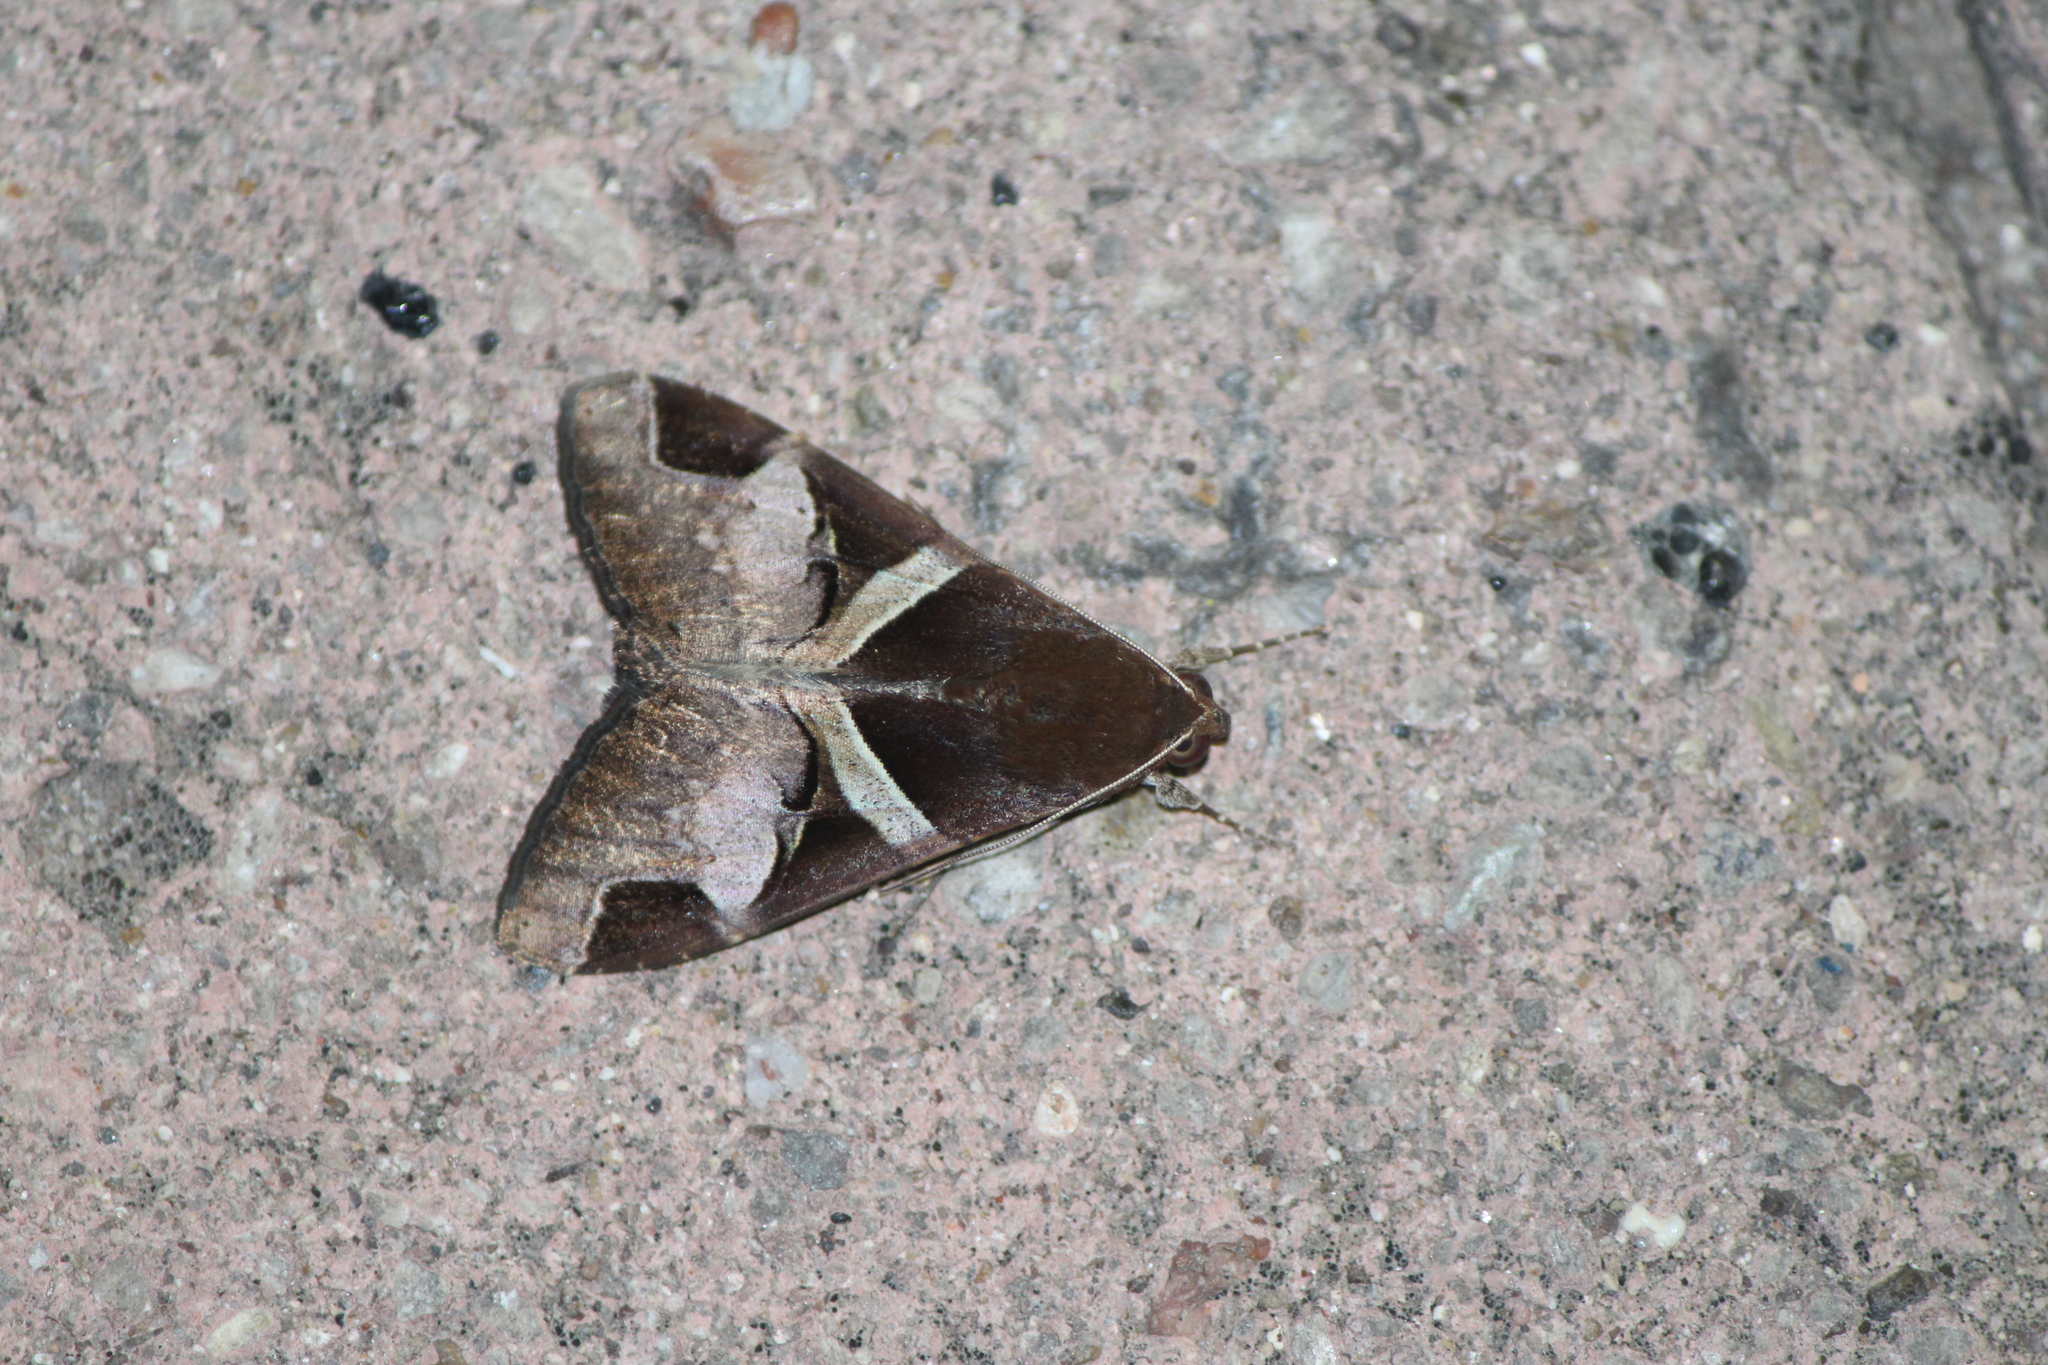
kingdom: Animalia
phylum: Arthropoda
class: Insecta
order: Lepidoptera
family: Erebidae
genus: Melipotis
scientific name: Melipotis fasciolaris
